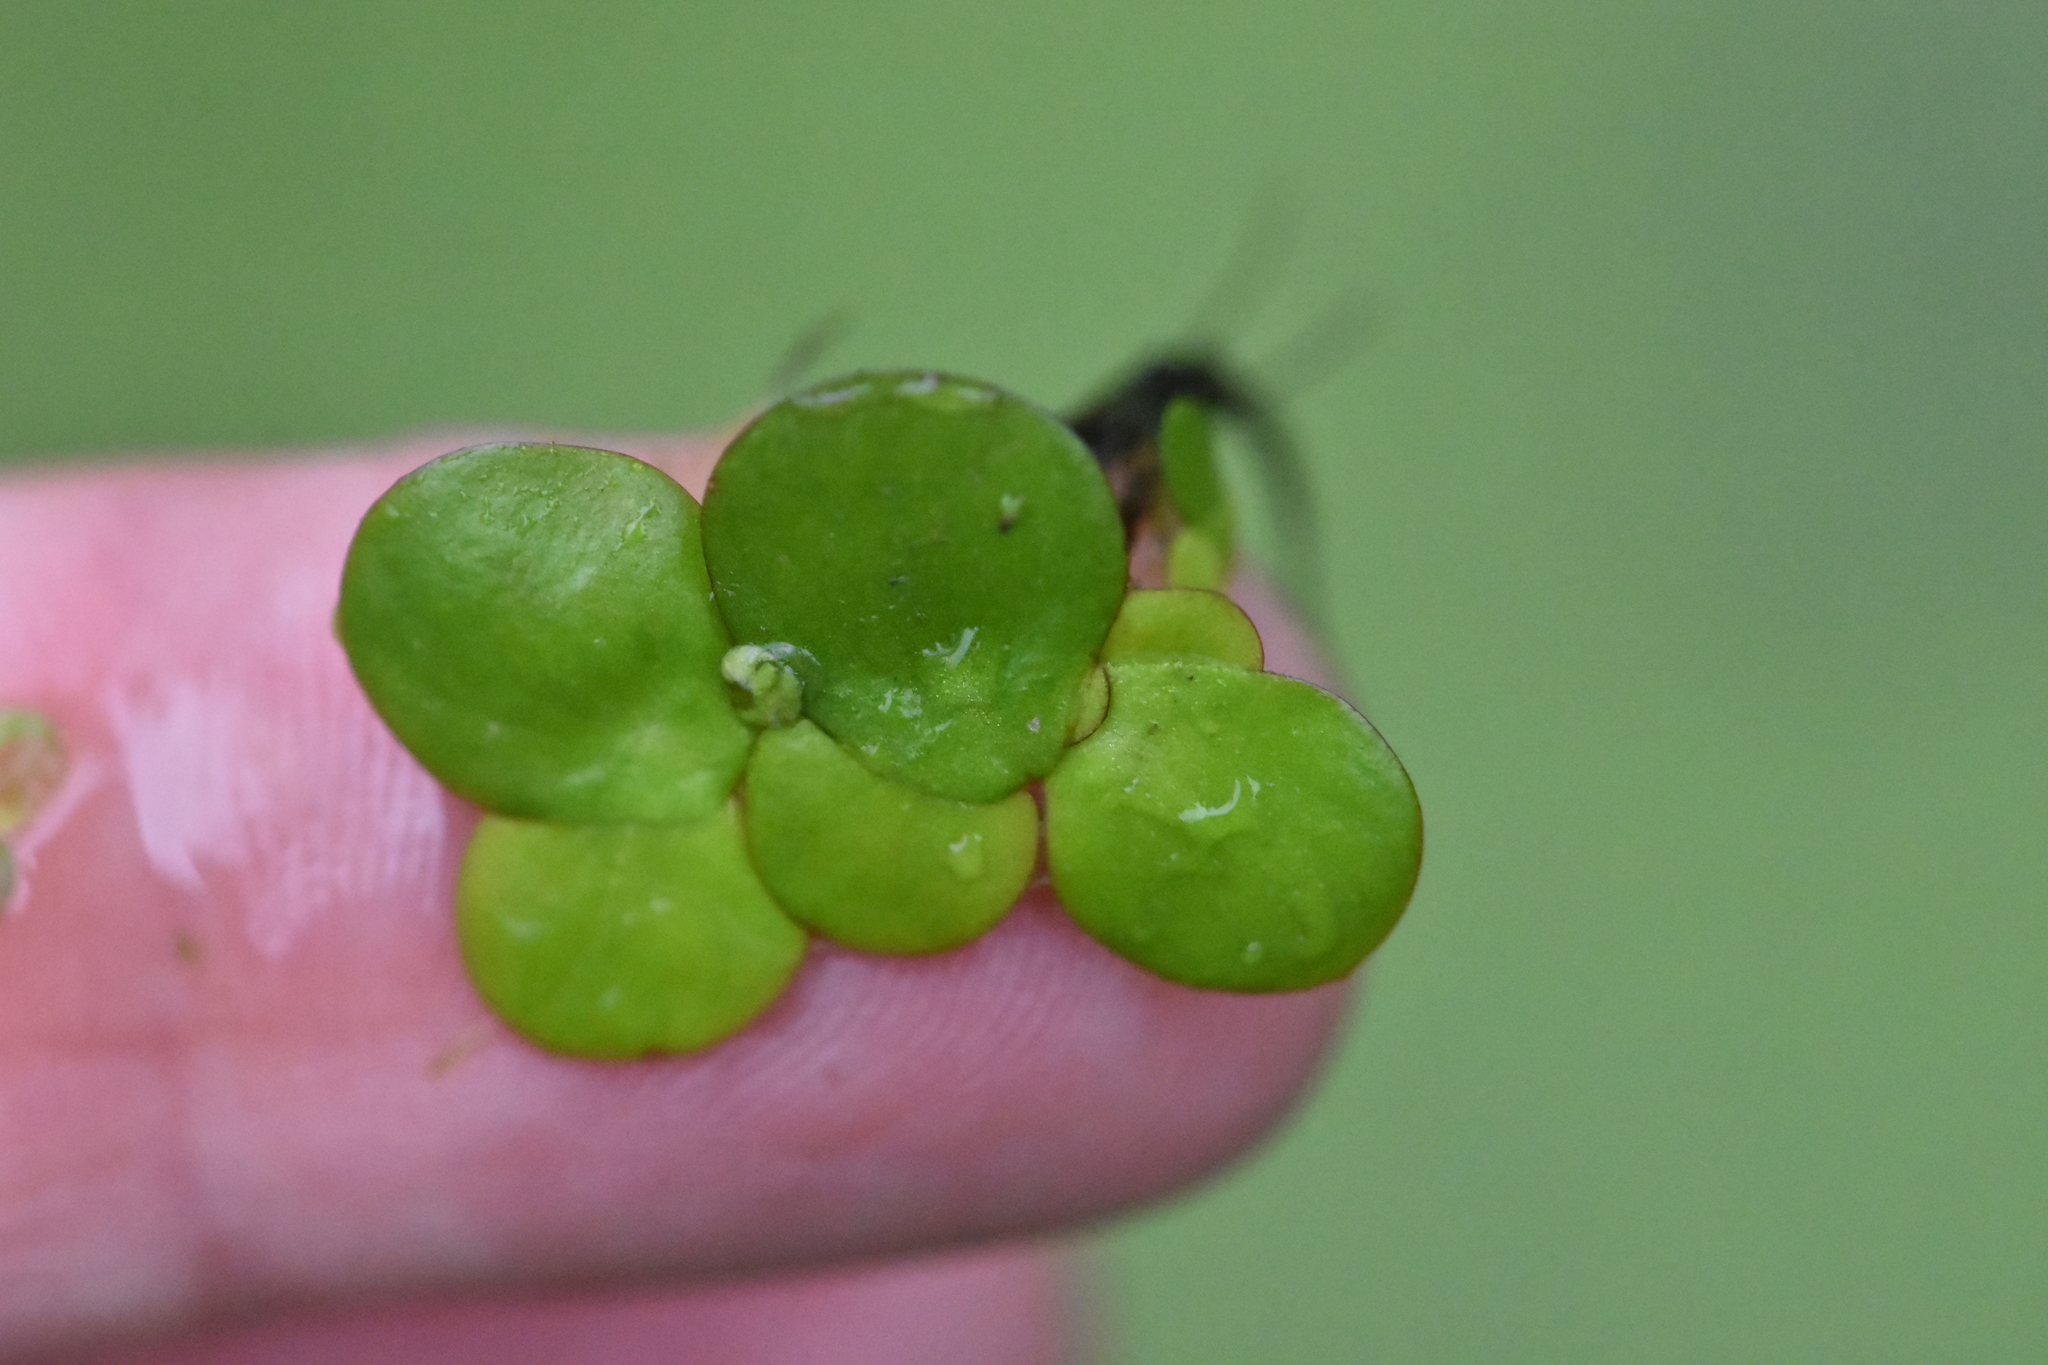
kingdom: Plantae
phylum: Tracheophyta
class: Liliopsida
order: Alismatales
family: Araceae
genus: Spirodela
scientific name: Spirodela polyrhiza
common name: Great duckweed
